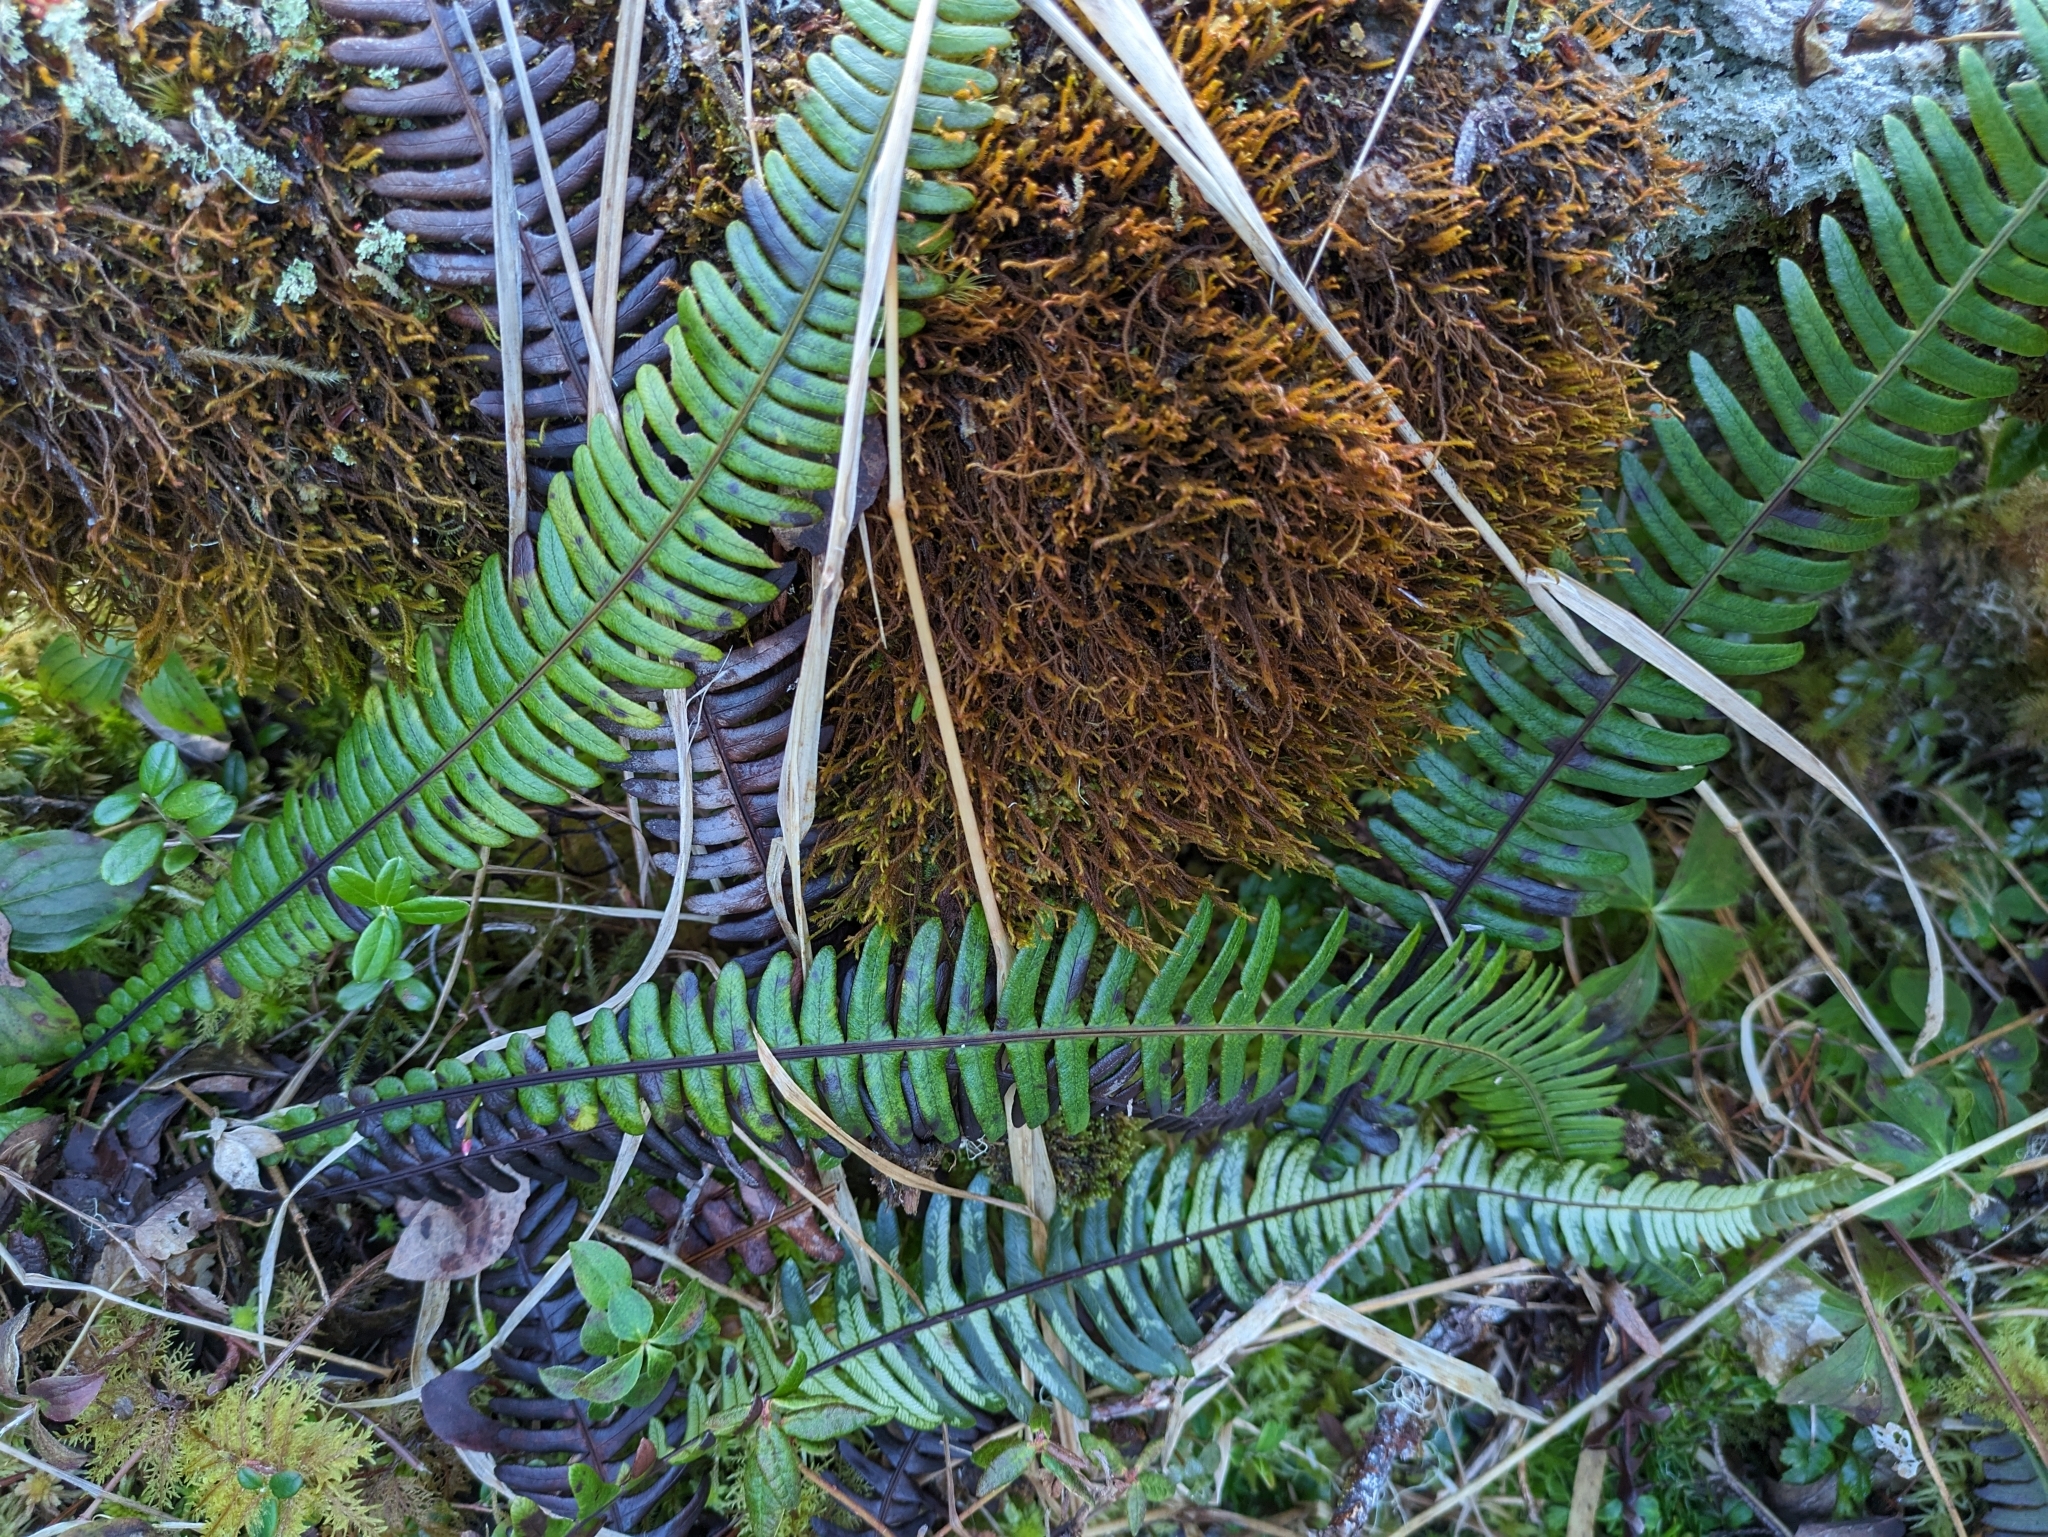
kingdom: Plantae
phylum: Tracheophyta
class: Polypodiopsida
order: Polypodiales
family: Blechnaceae
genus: Struthiopteris
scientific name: Struthiopteris spicant
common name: Deer fern
